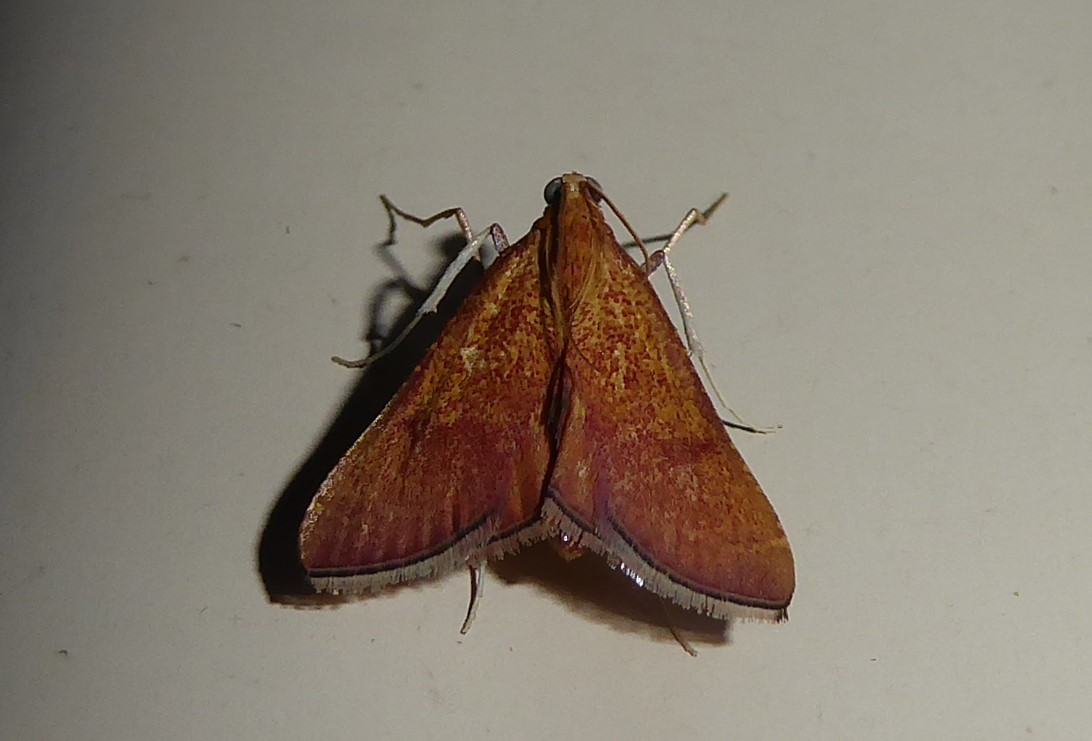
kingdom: Animalia
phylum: Arthropoda
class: Insecta
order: Lepidoptera
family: Pyralidae
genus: Endotricha
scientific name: Endotricha pyrosalis
